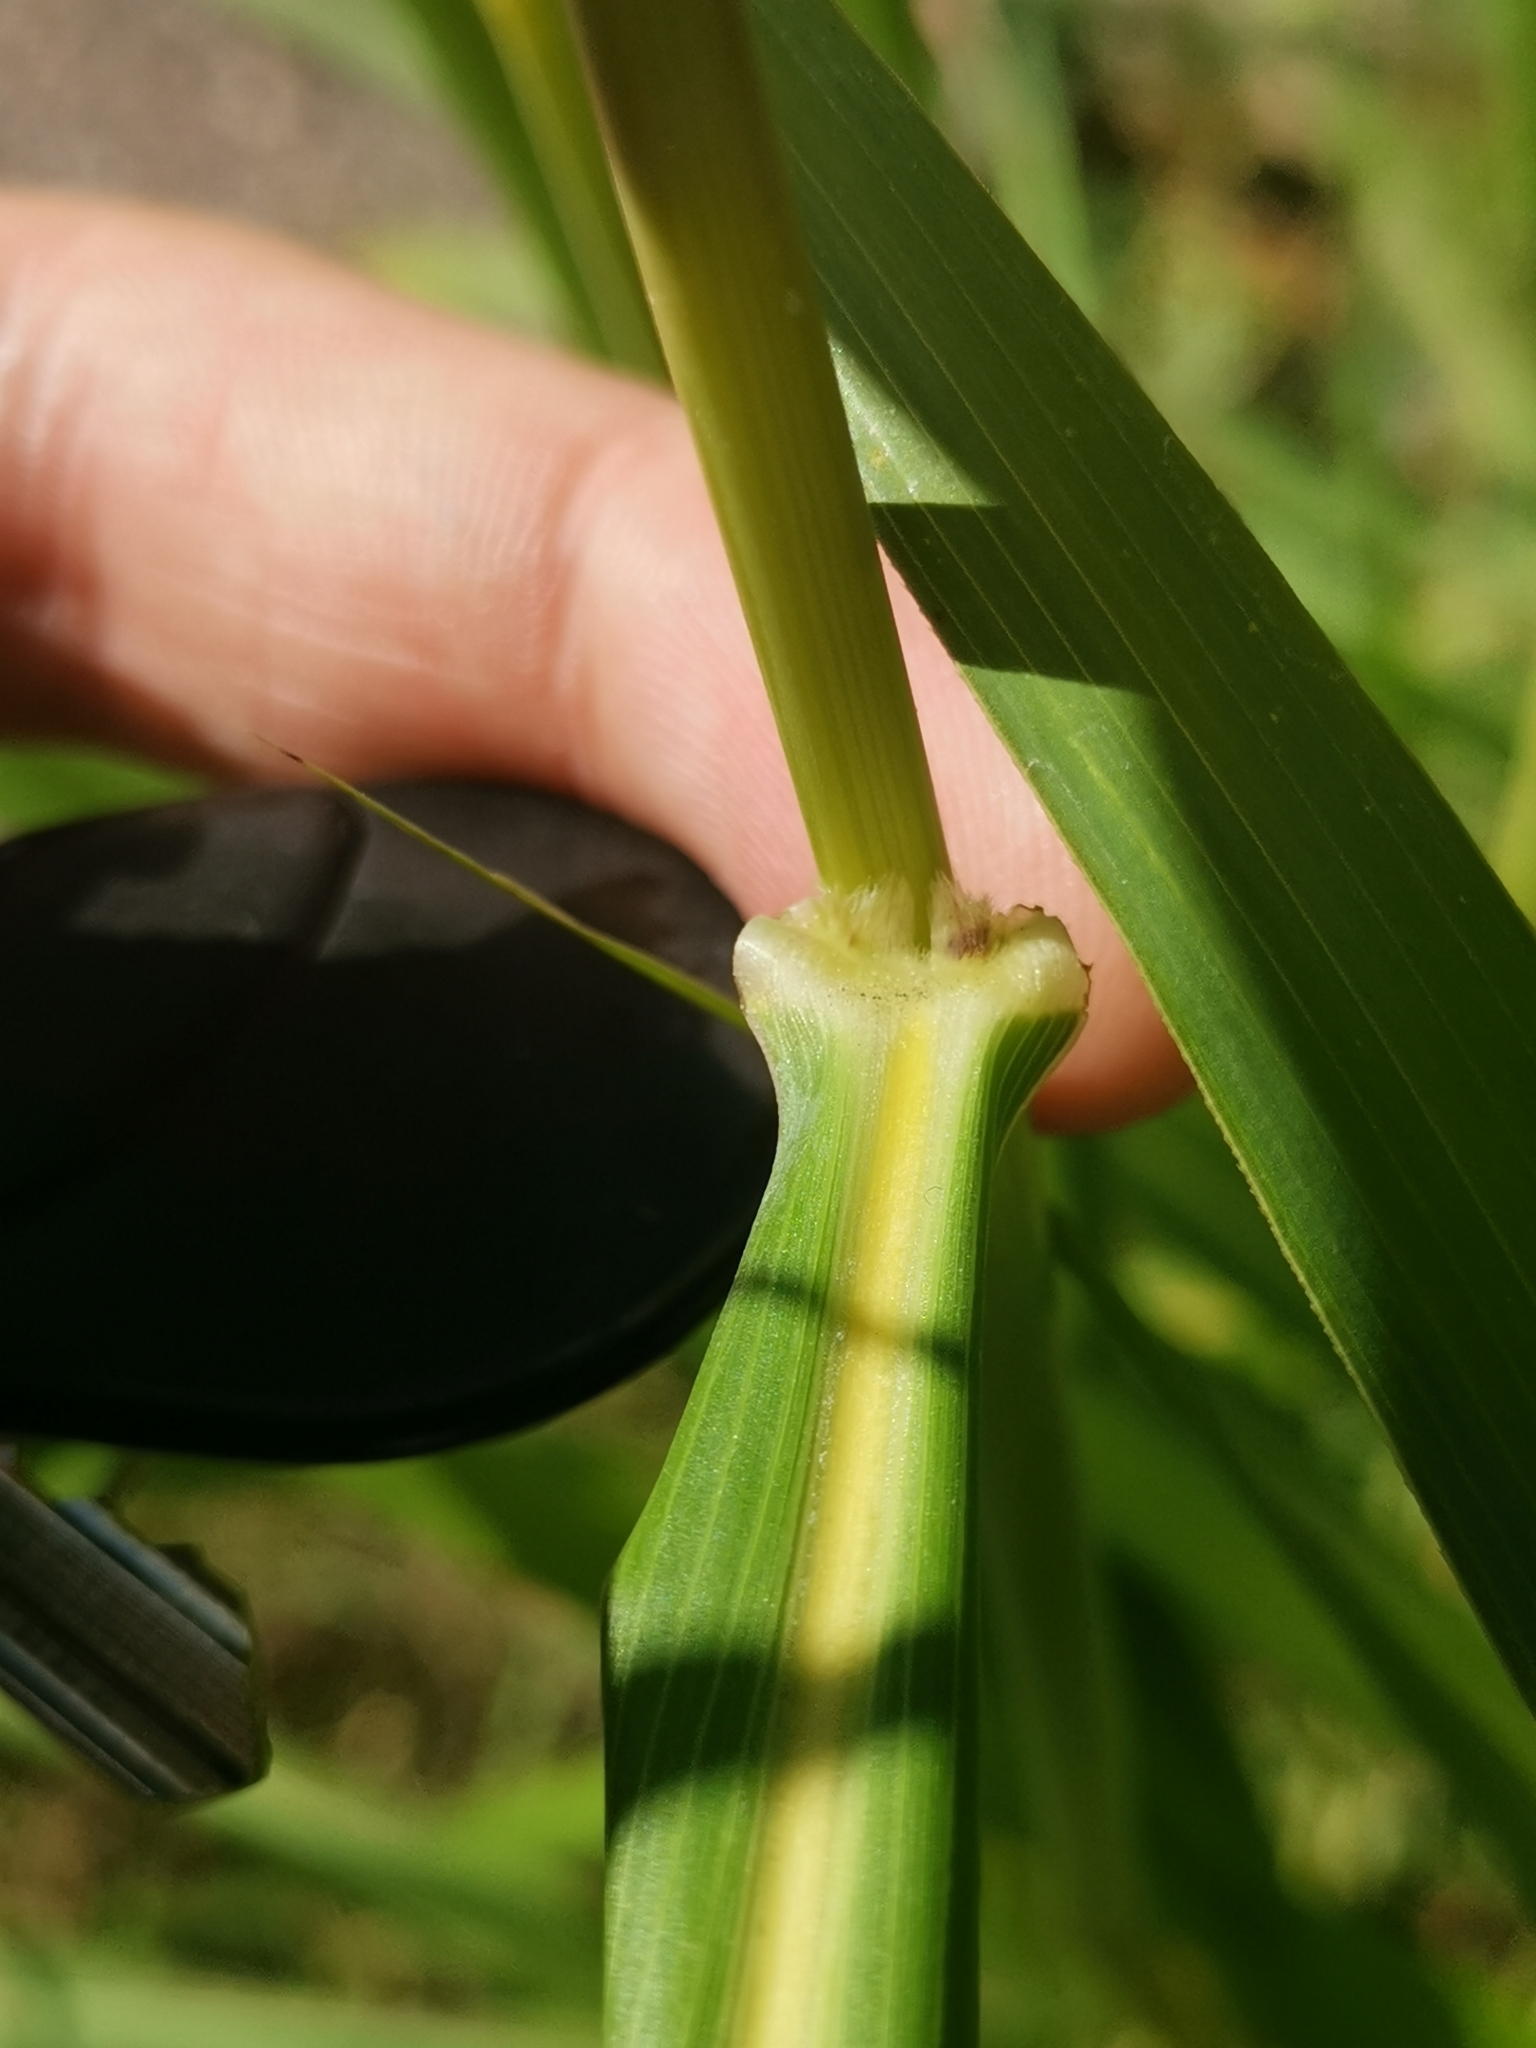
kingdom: Plantae
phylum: Tracheophyta
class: Liliopsida
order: Poales
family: Poaceae
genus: Sorghum
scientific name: Sorghum halepense
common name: Johnson-grass
